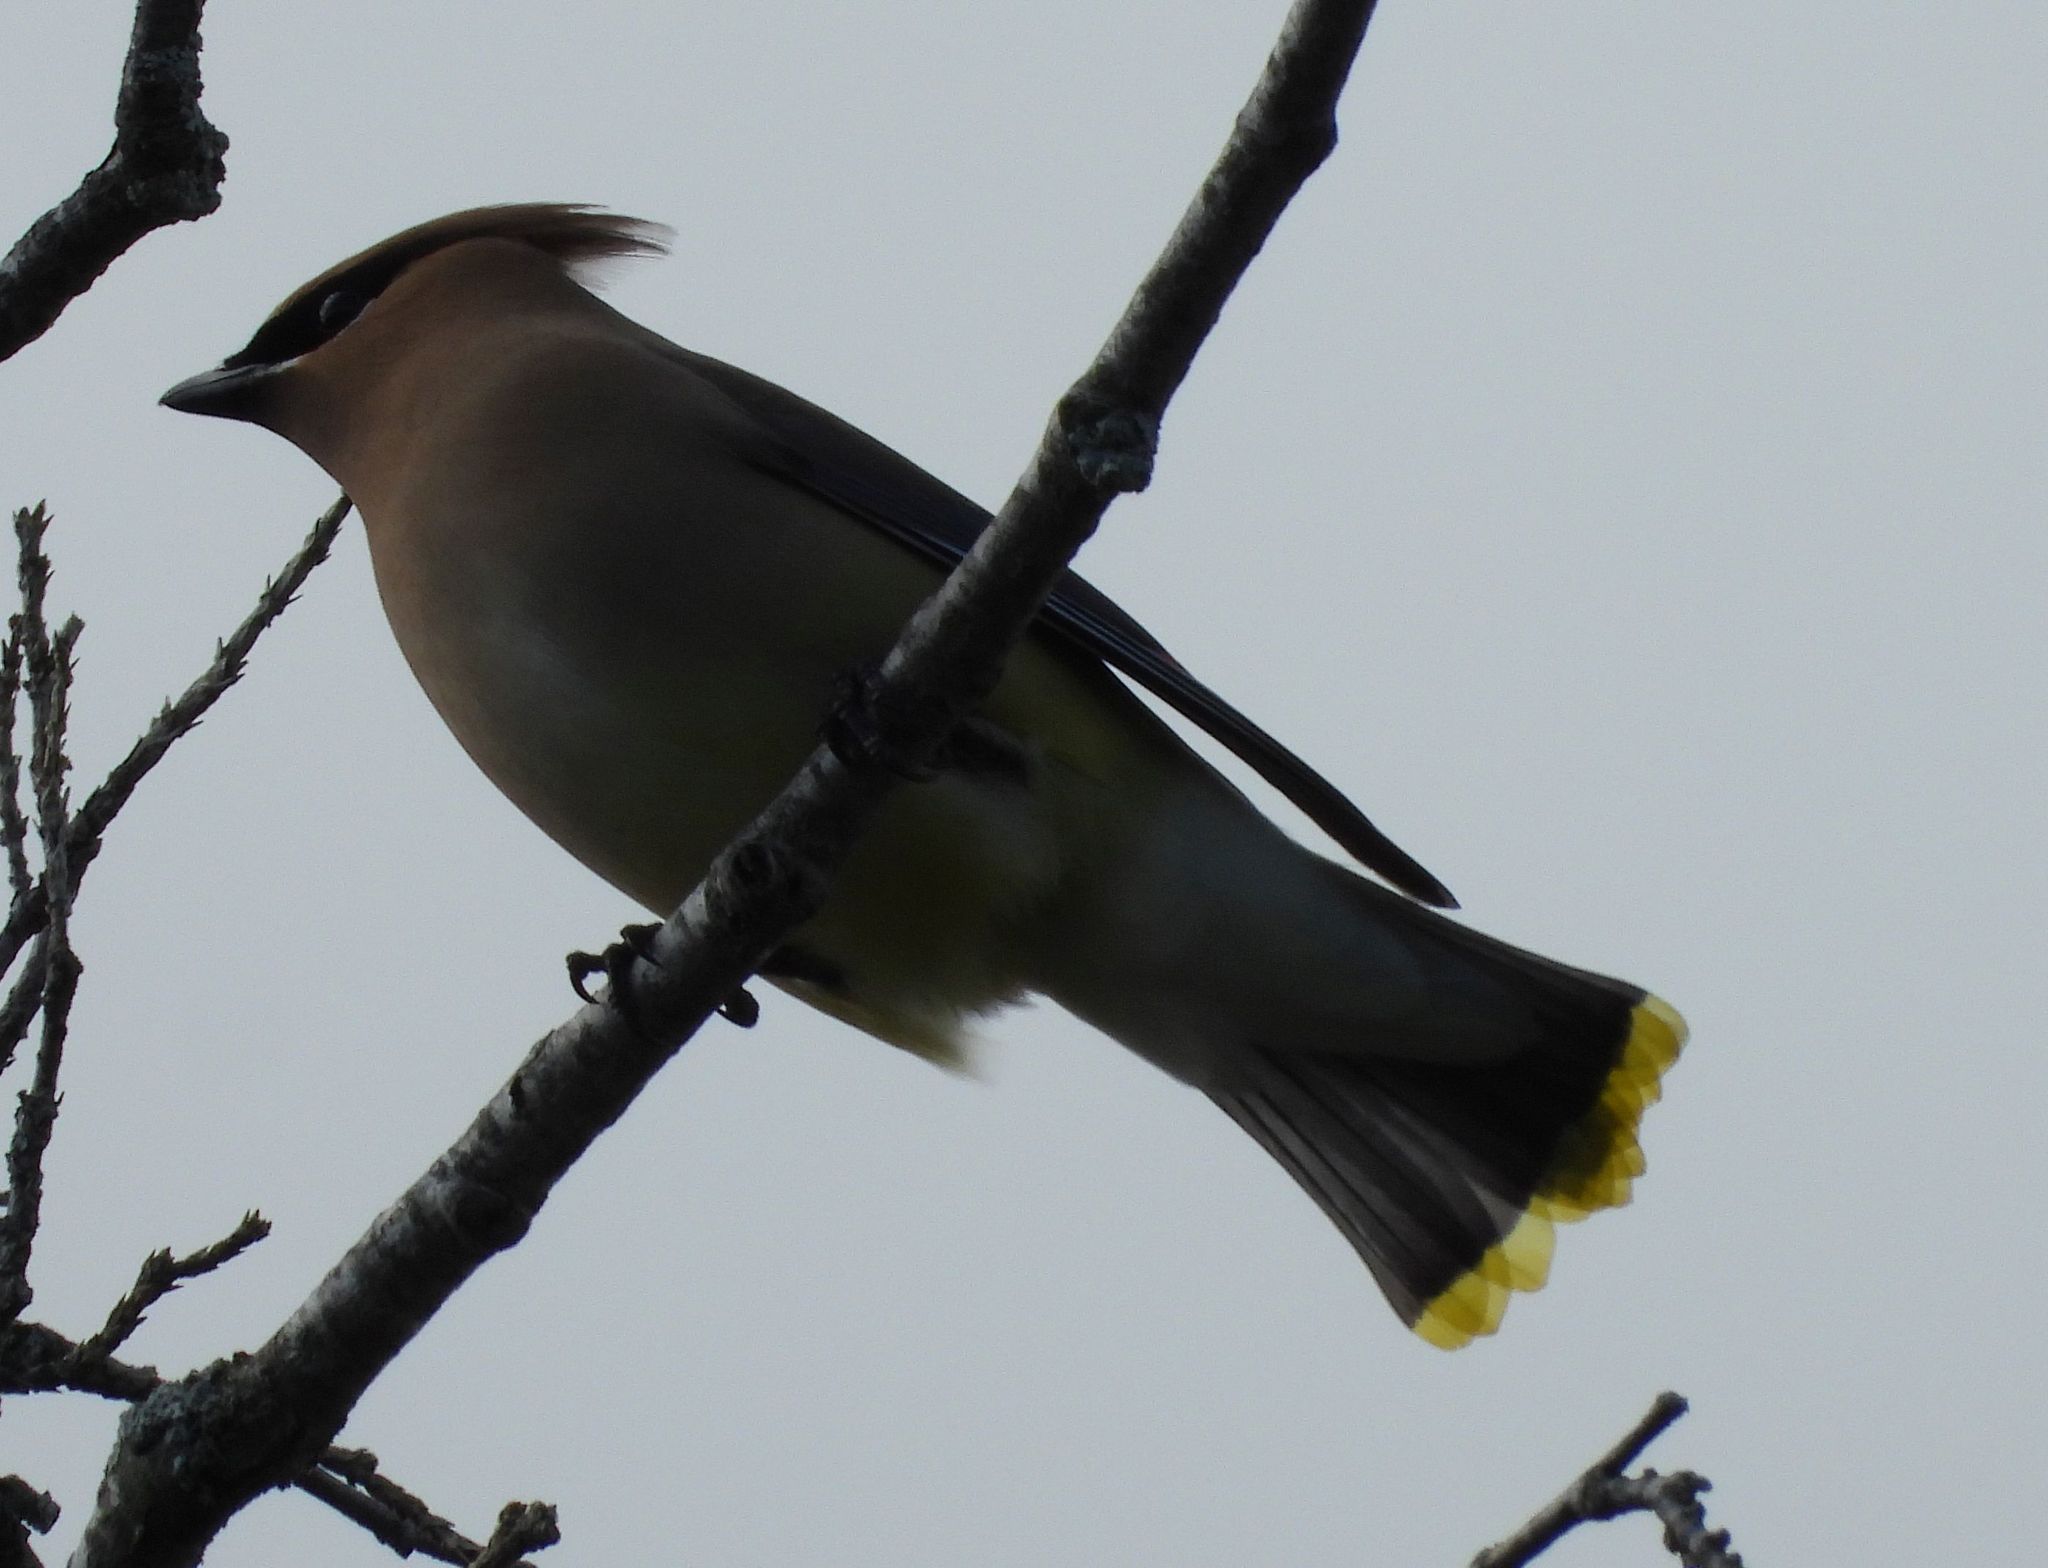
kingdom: Animalia
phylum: Chordata
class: Aves
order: Passeriformes
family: Bombycillidae
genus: Bombycilla
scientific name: Bombycilla cedrorum
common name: Cedar waxwing
